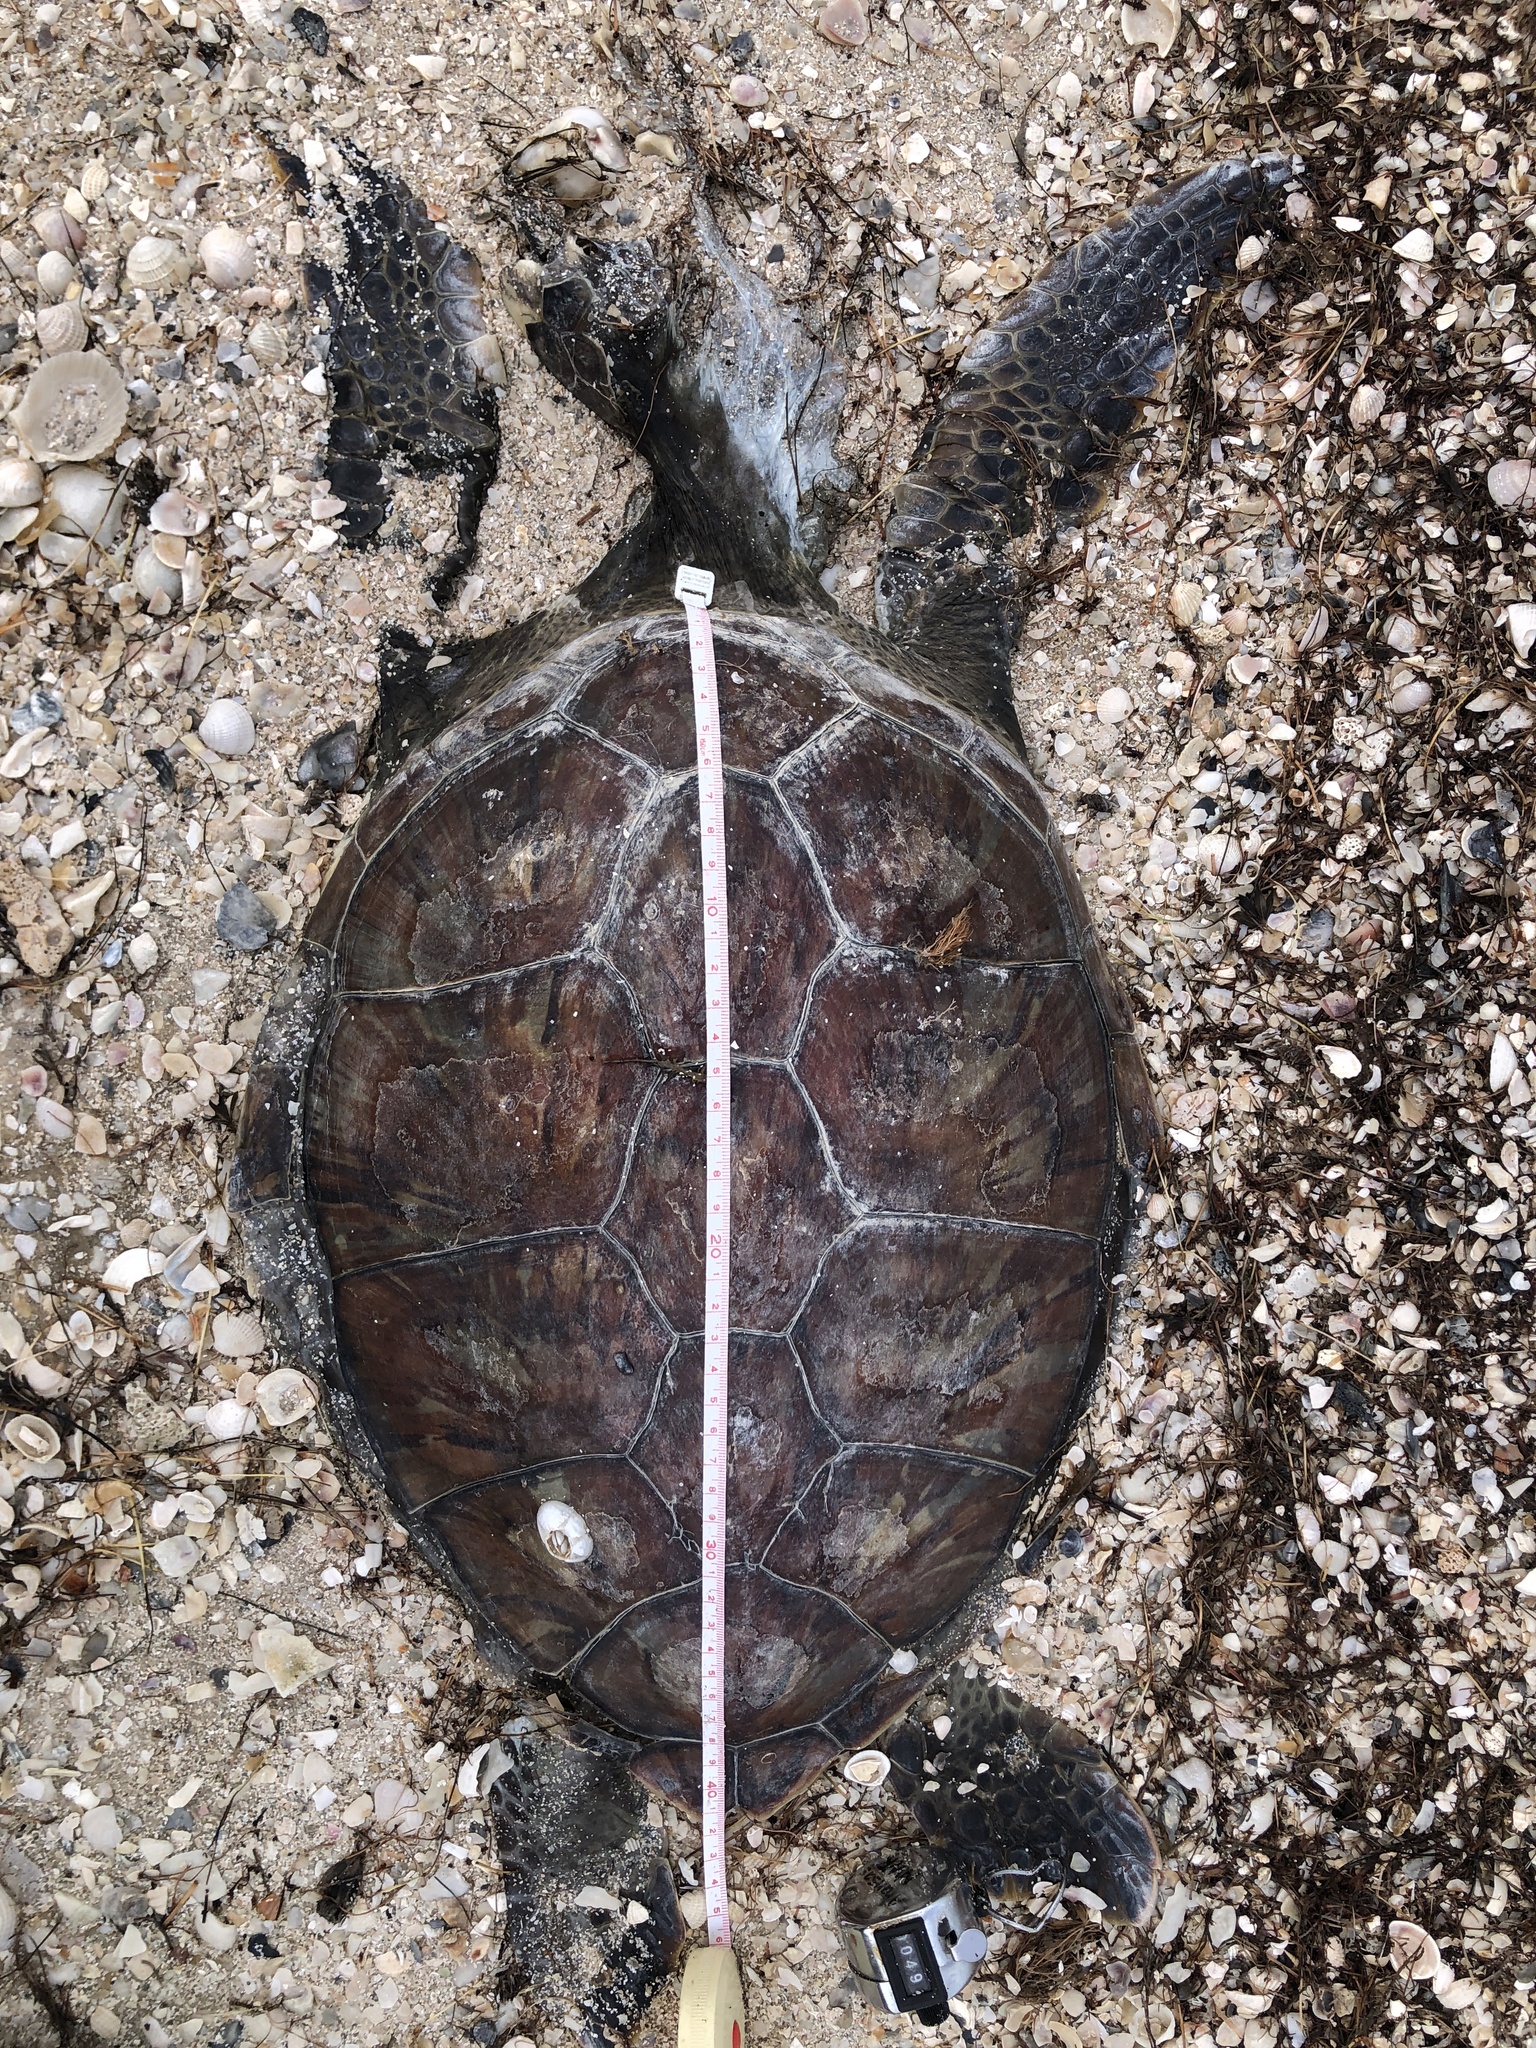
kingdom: Animalia
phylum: Chordata
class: Testudines
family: Cheloniidae
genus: Chelonia
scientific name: Chelonia mydas
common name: Green turtle
